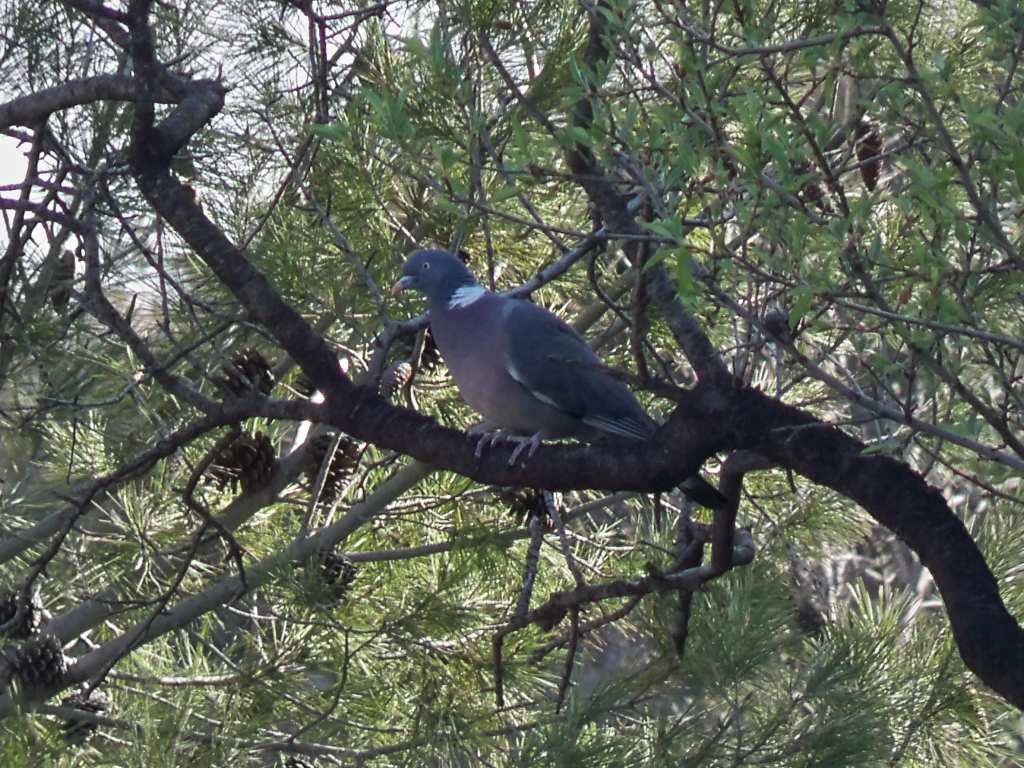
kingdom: Animalia
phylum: Chordata
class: Aves
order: Columbiformes
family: Columbidae
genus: Columba
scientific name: Columba palumbus
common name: Common wood pigeon
